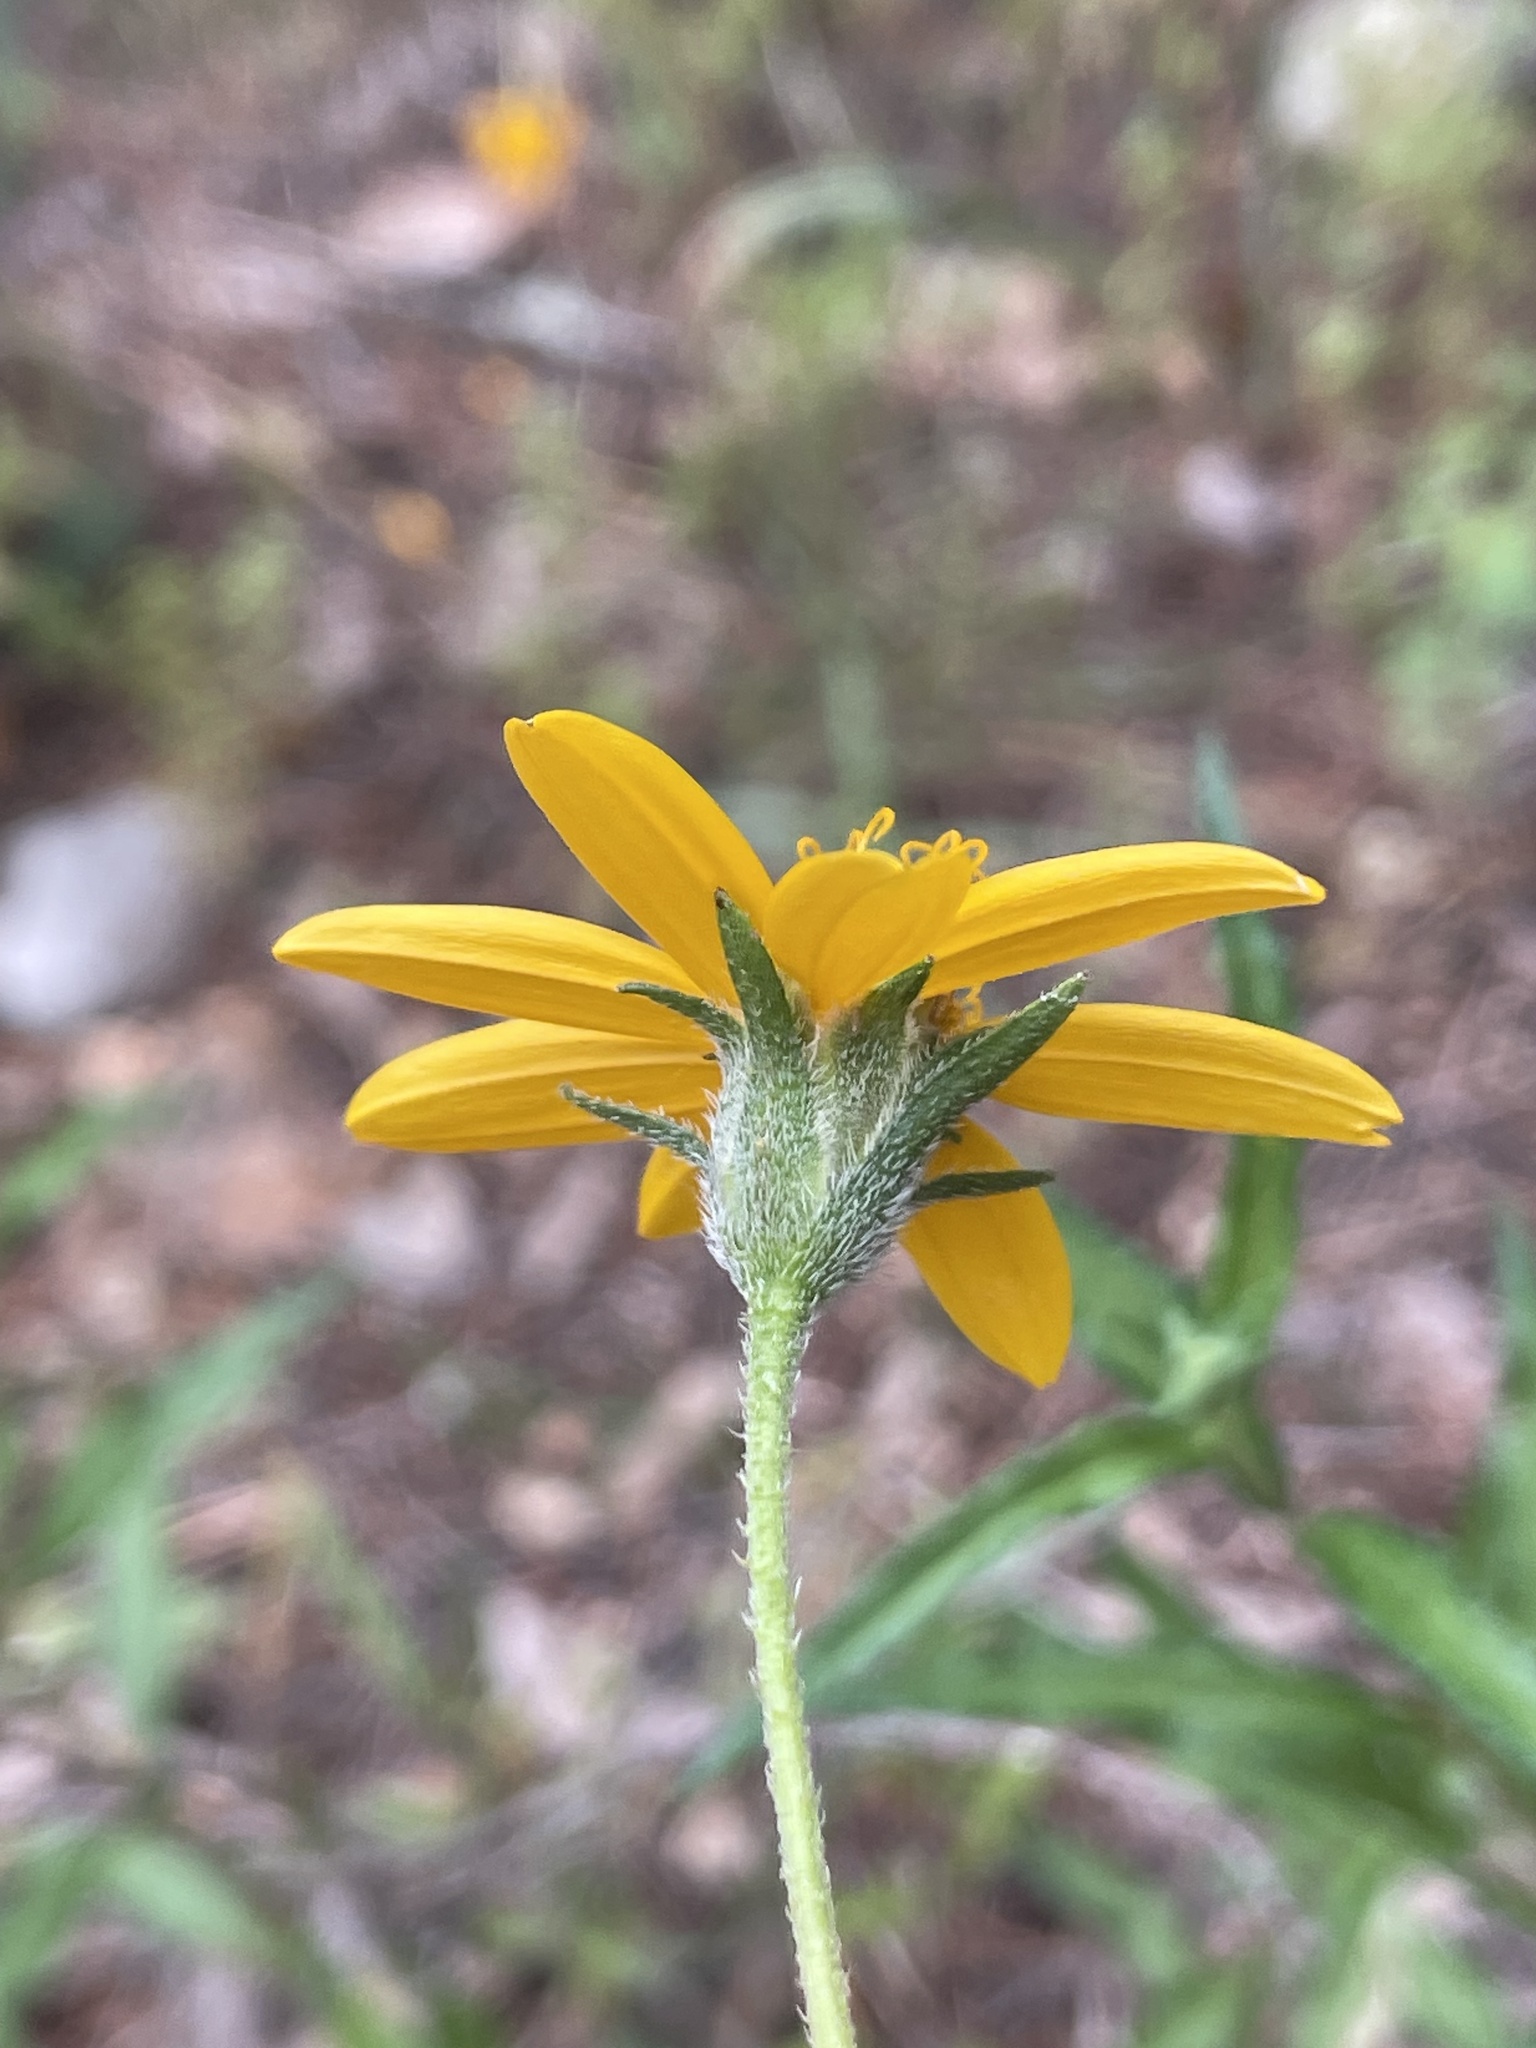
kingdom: Plantae
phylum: Tracheophyta
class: Magnoliopsida
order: Asterales
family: Asteraceae
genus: Wedelia
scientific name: Wedelia acapulcensis
